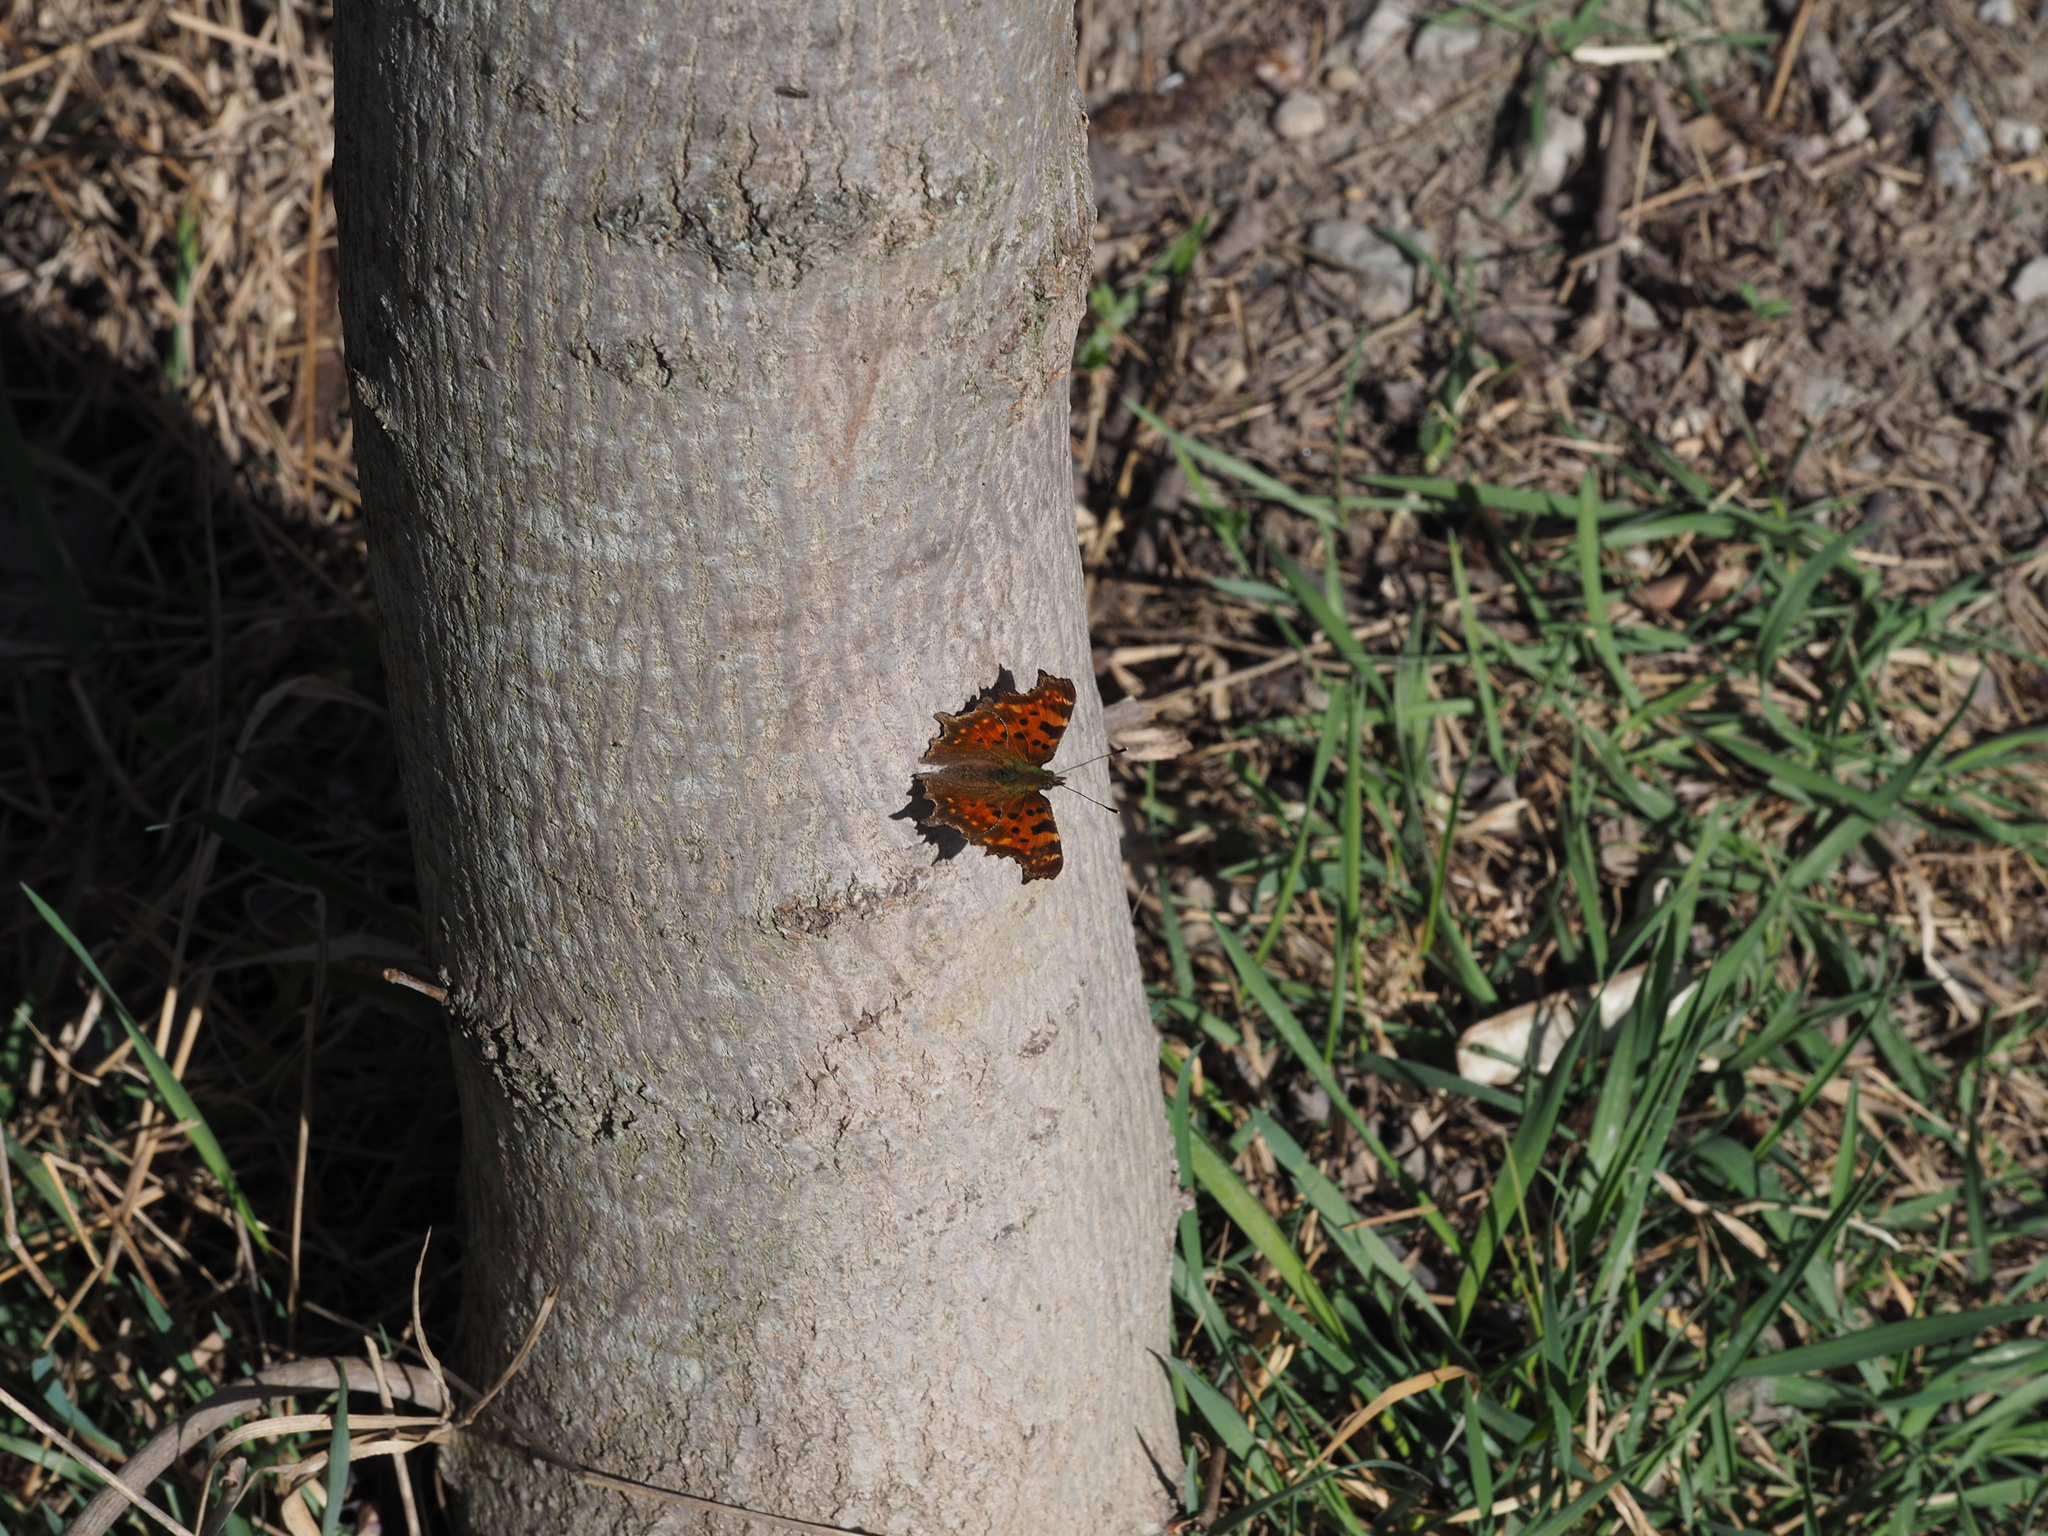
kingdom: Animalia
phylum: Arthropoda
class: Insecta
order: Lepidoptera
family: Nymphalidae
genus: Polygonia
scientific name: Polygonia c-album
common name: Comma
